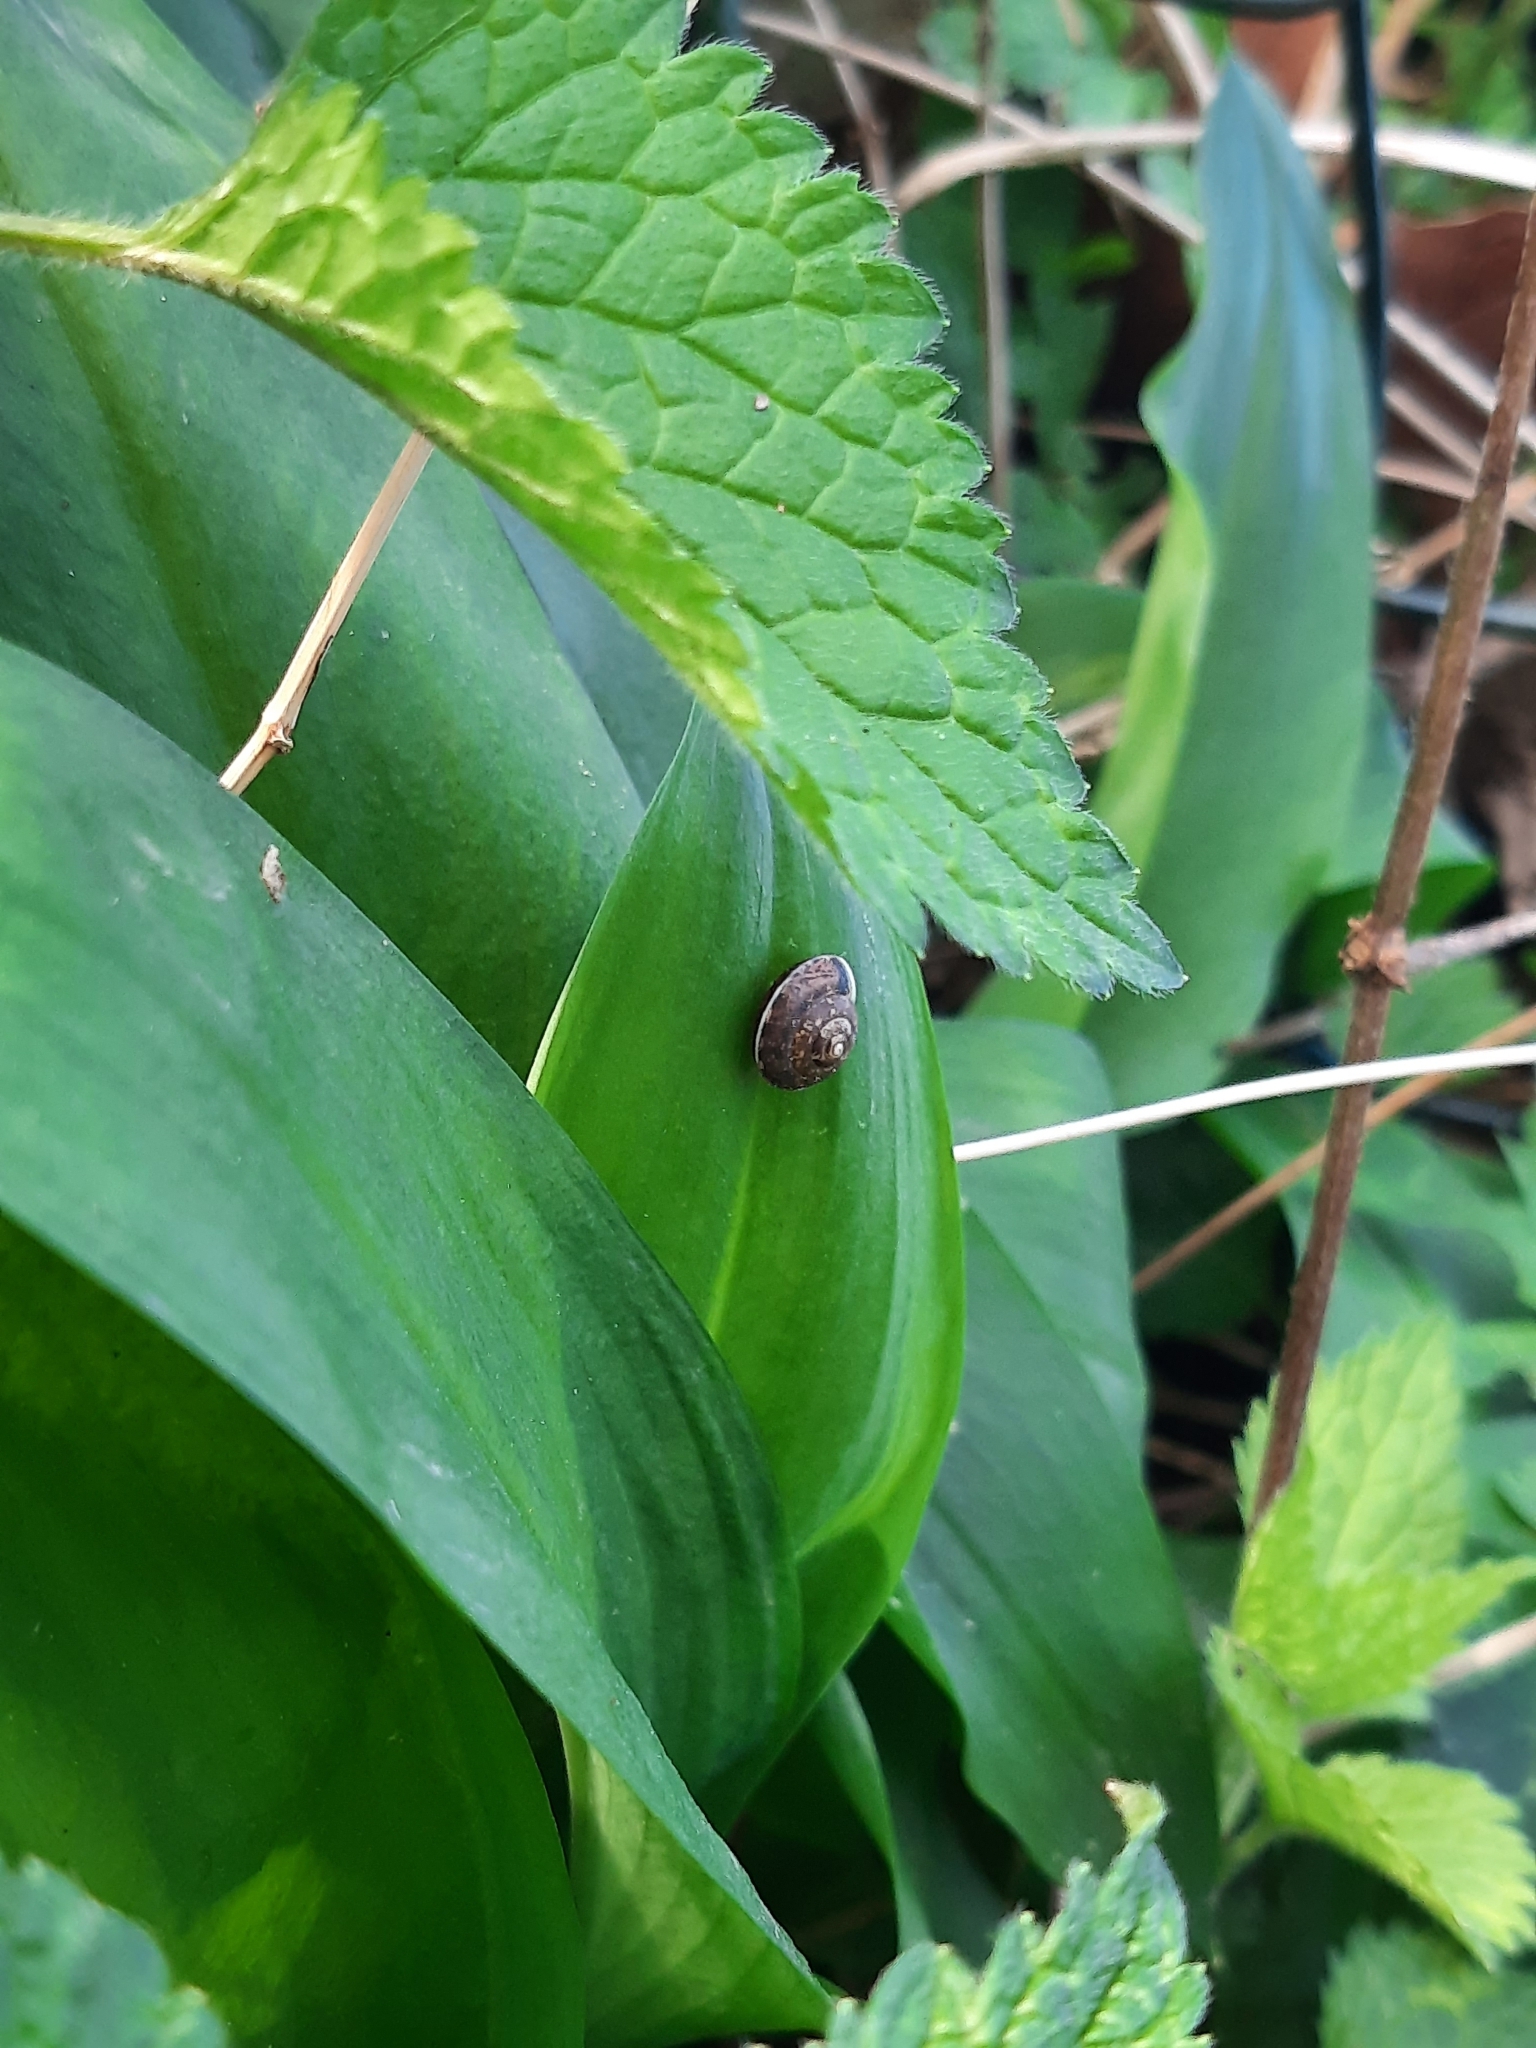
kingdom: Animalia
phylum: Mollusca
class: Gastropoda
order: Stylommatophora
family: Hygromiidae
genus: Hygromia
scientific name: Hygromia cinctella
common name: Girdled snail
